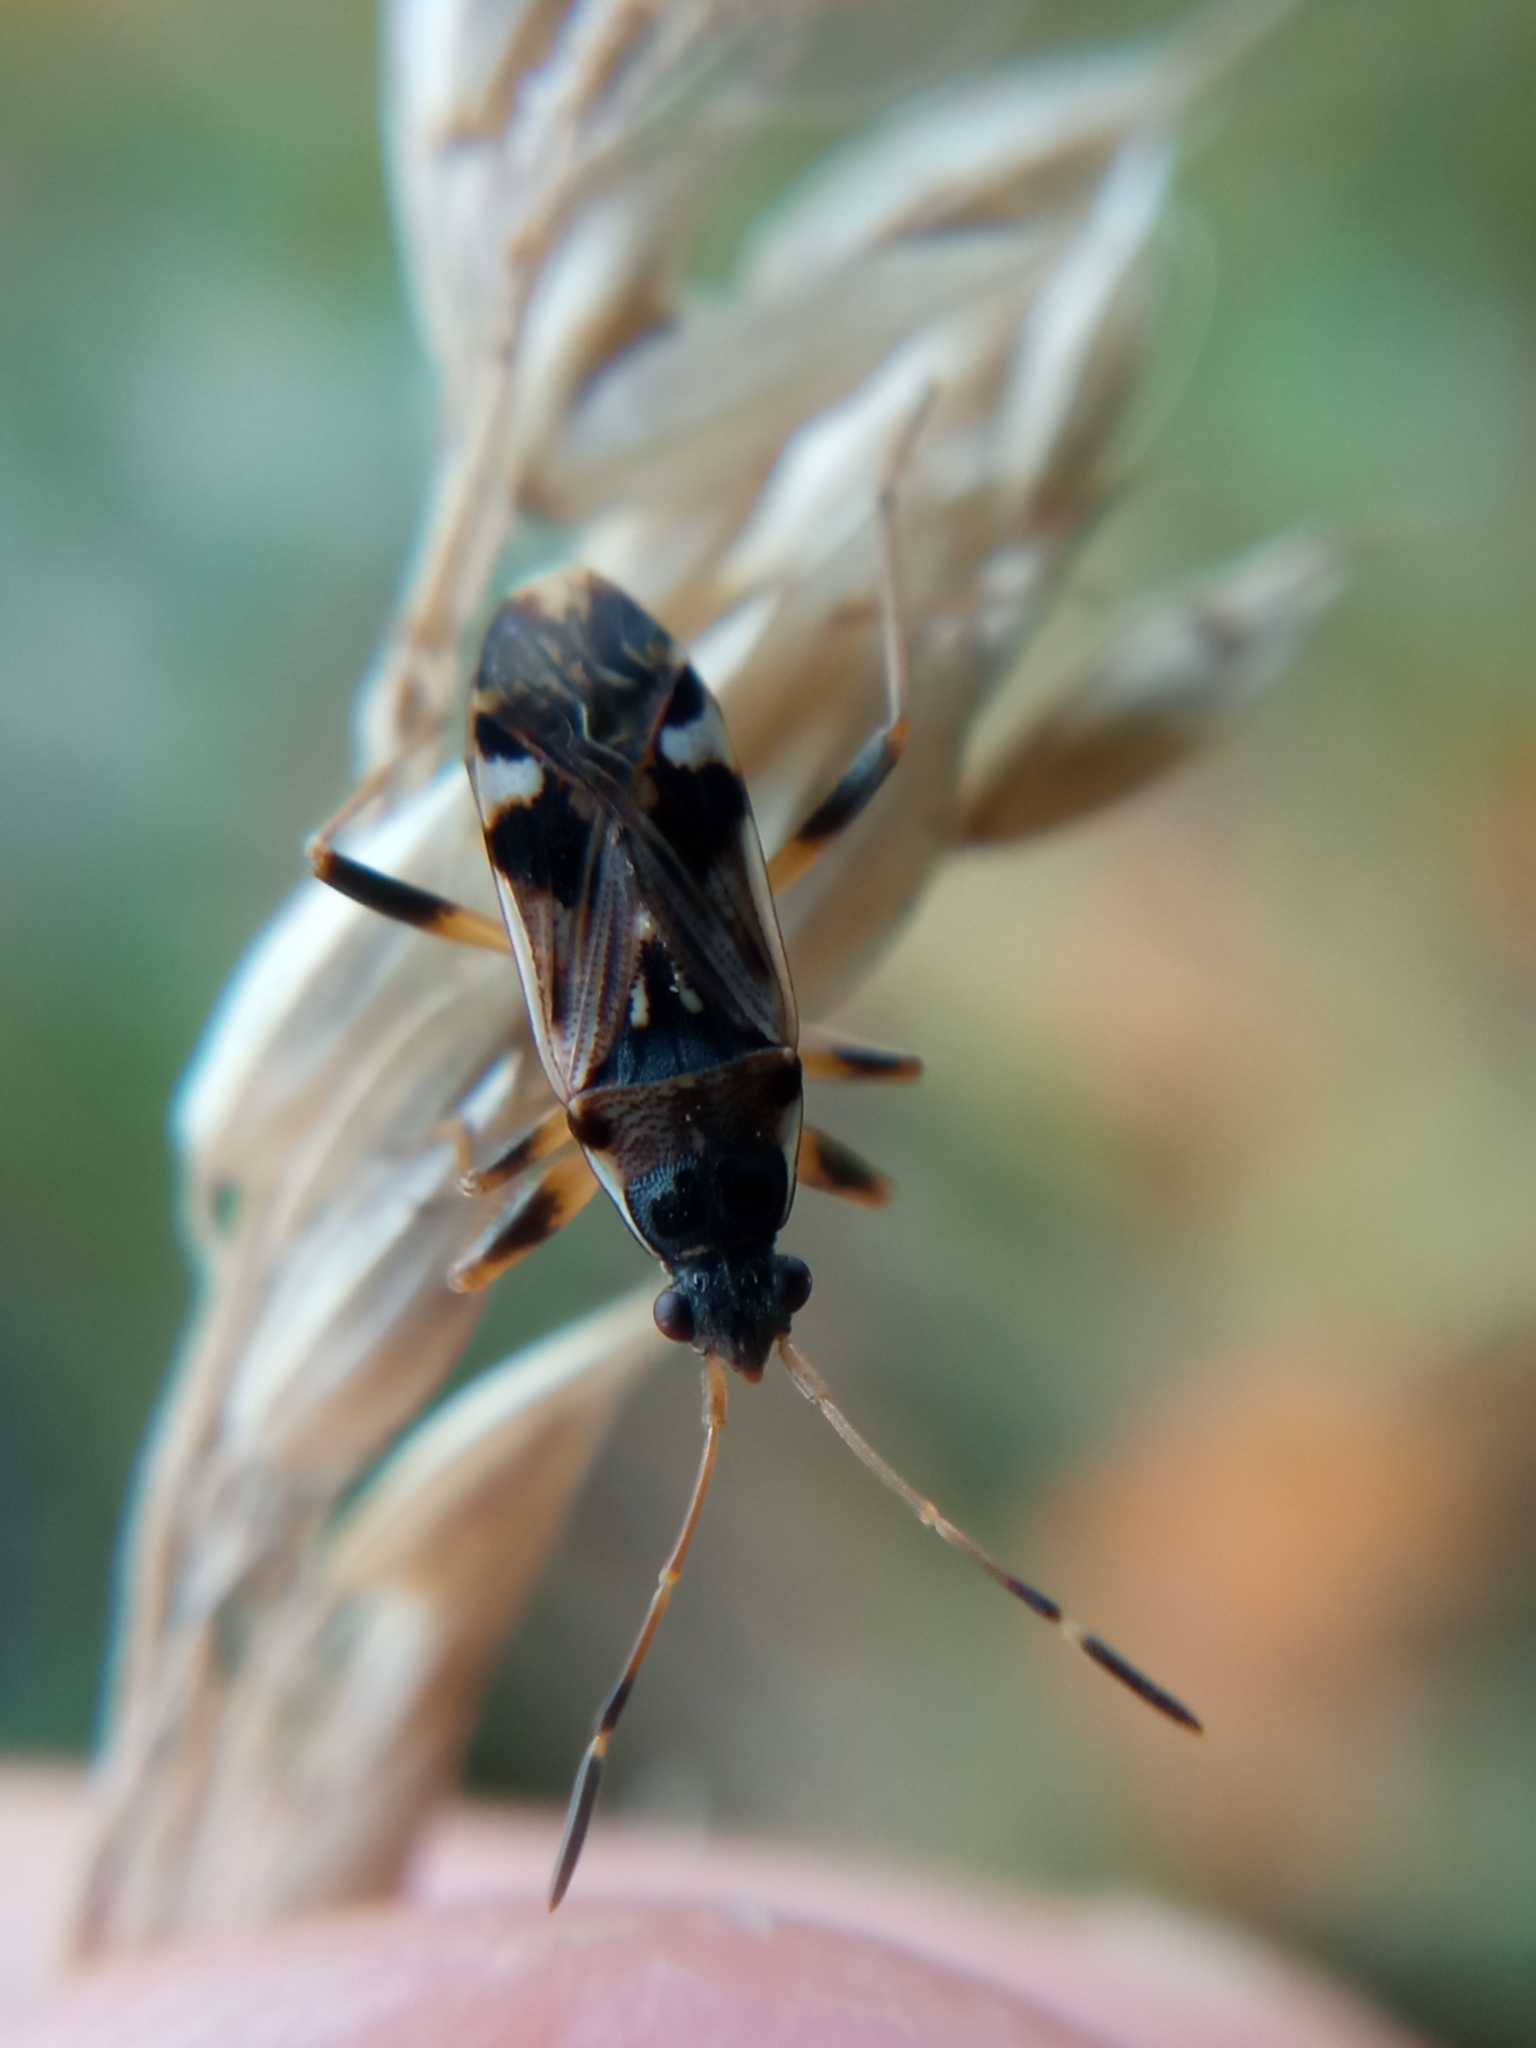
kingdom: Animalia
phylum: Arthropoda
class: Insecta
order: Hemiptera
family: Rhyparochromidae
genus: Beosus
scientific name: Beosus maritimus
